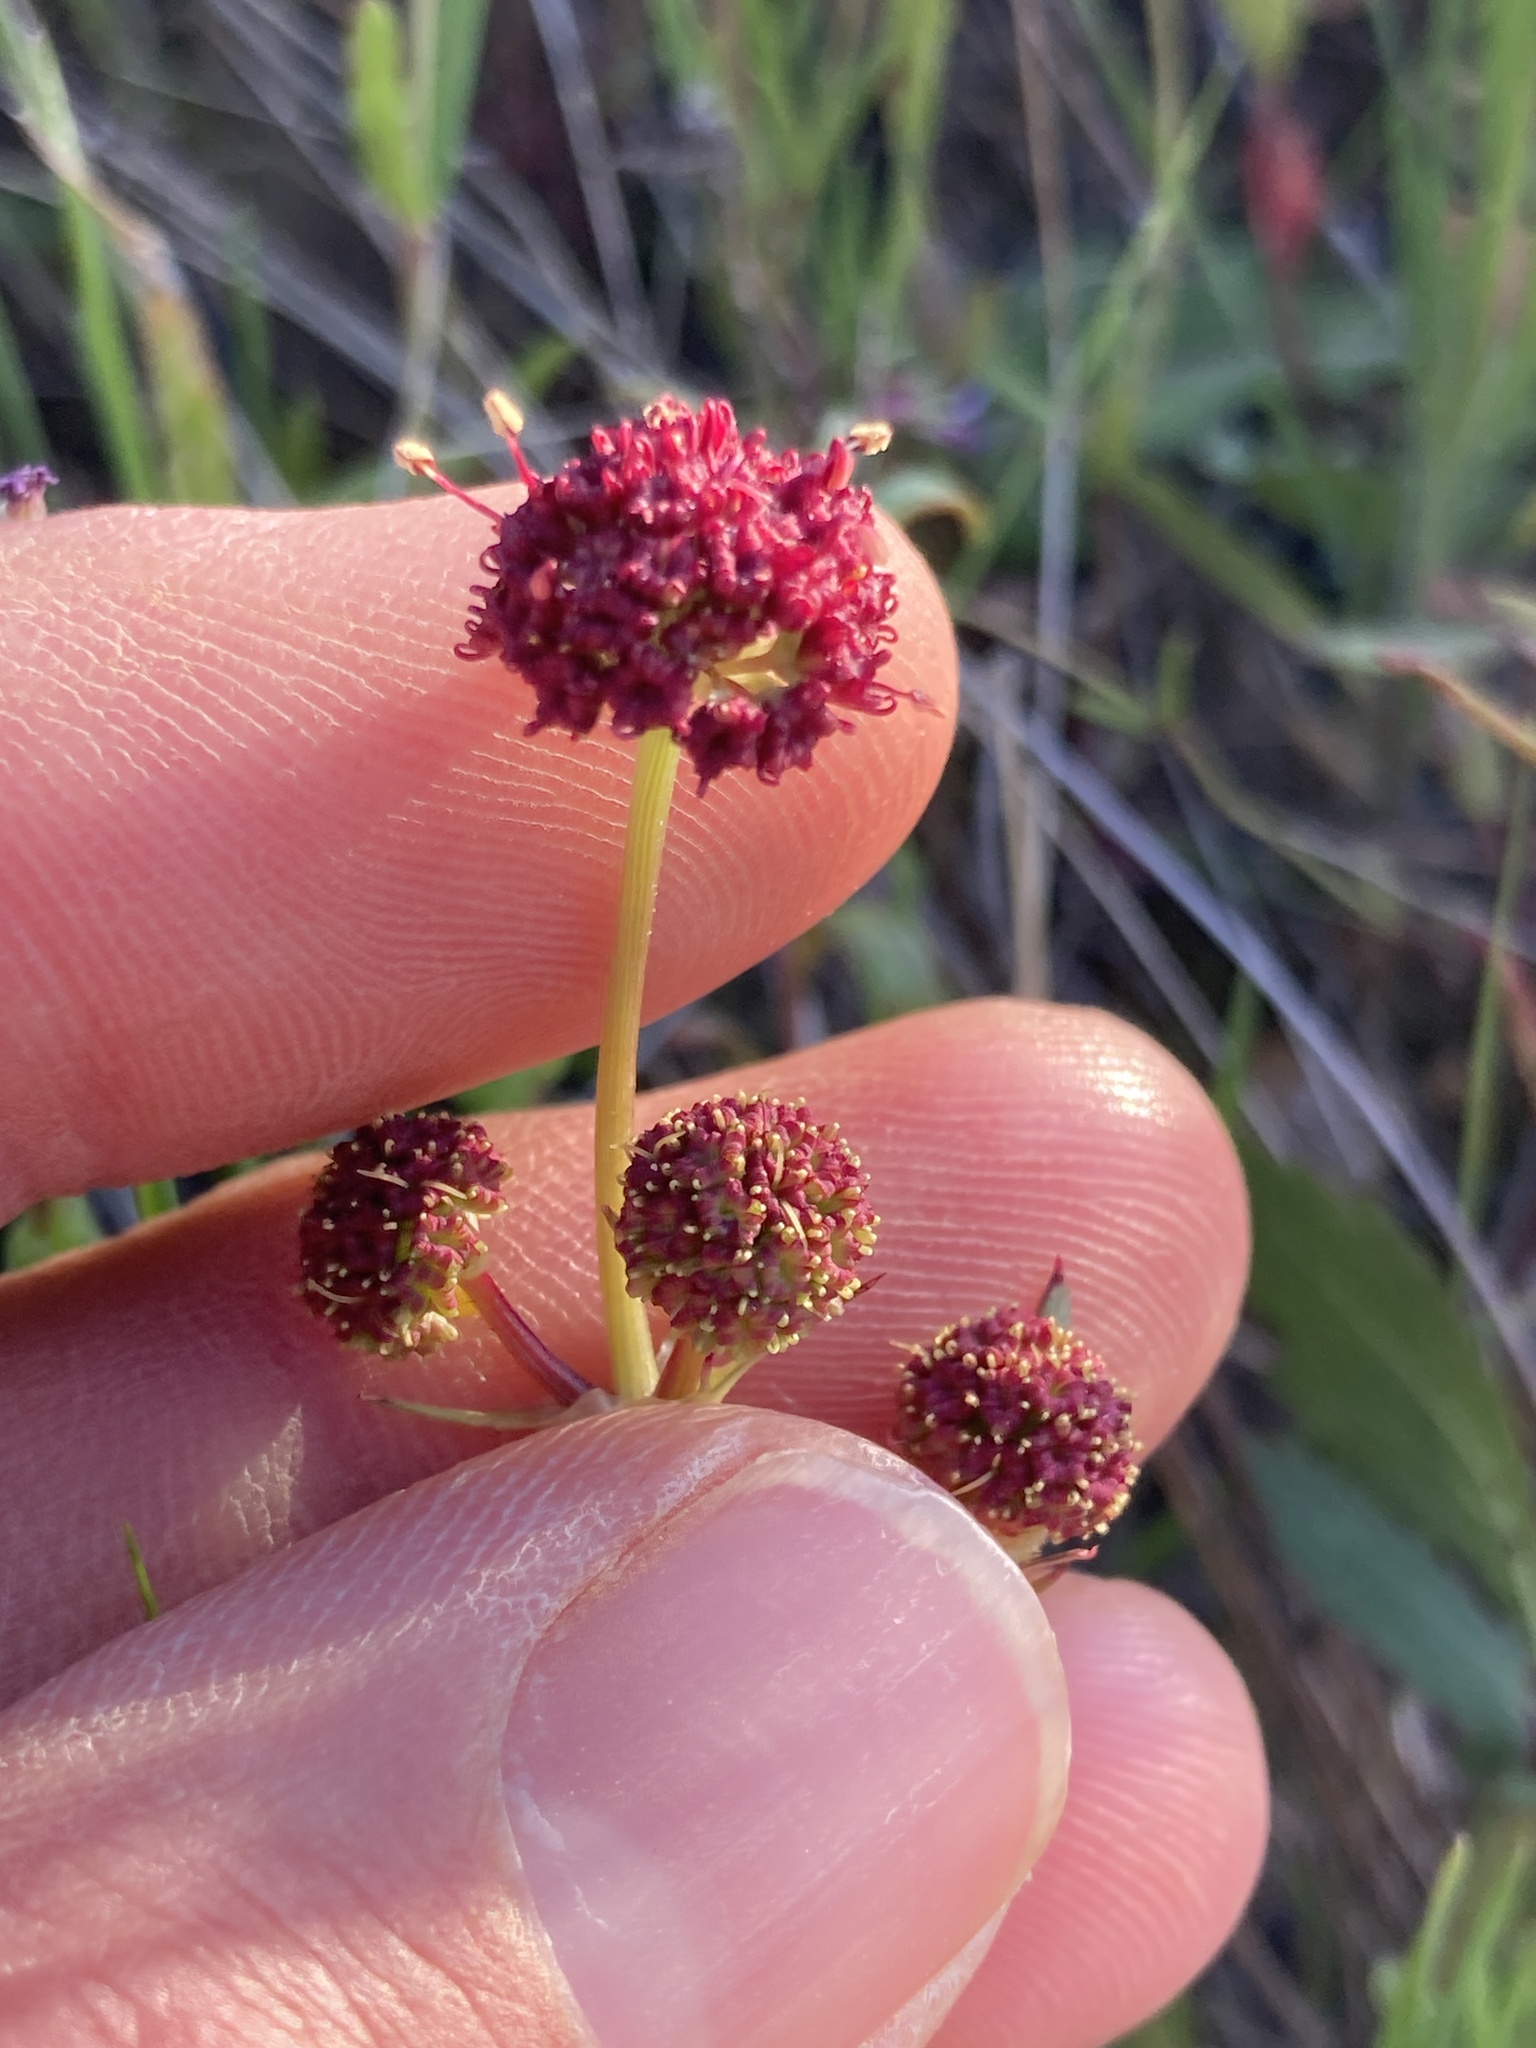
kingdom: Plantae
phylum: Tracheophyta
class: Magnoliopsida
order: Apiales
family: Apiaceae
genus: Sanicula
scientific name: Sanicula bipinnatifida
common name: Shoe-buttons
